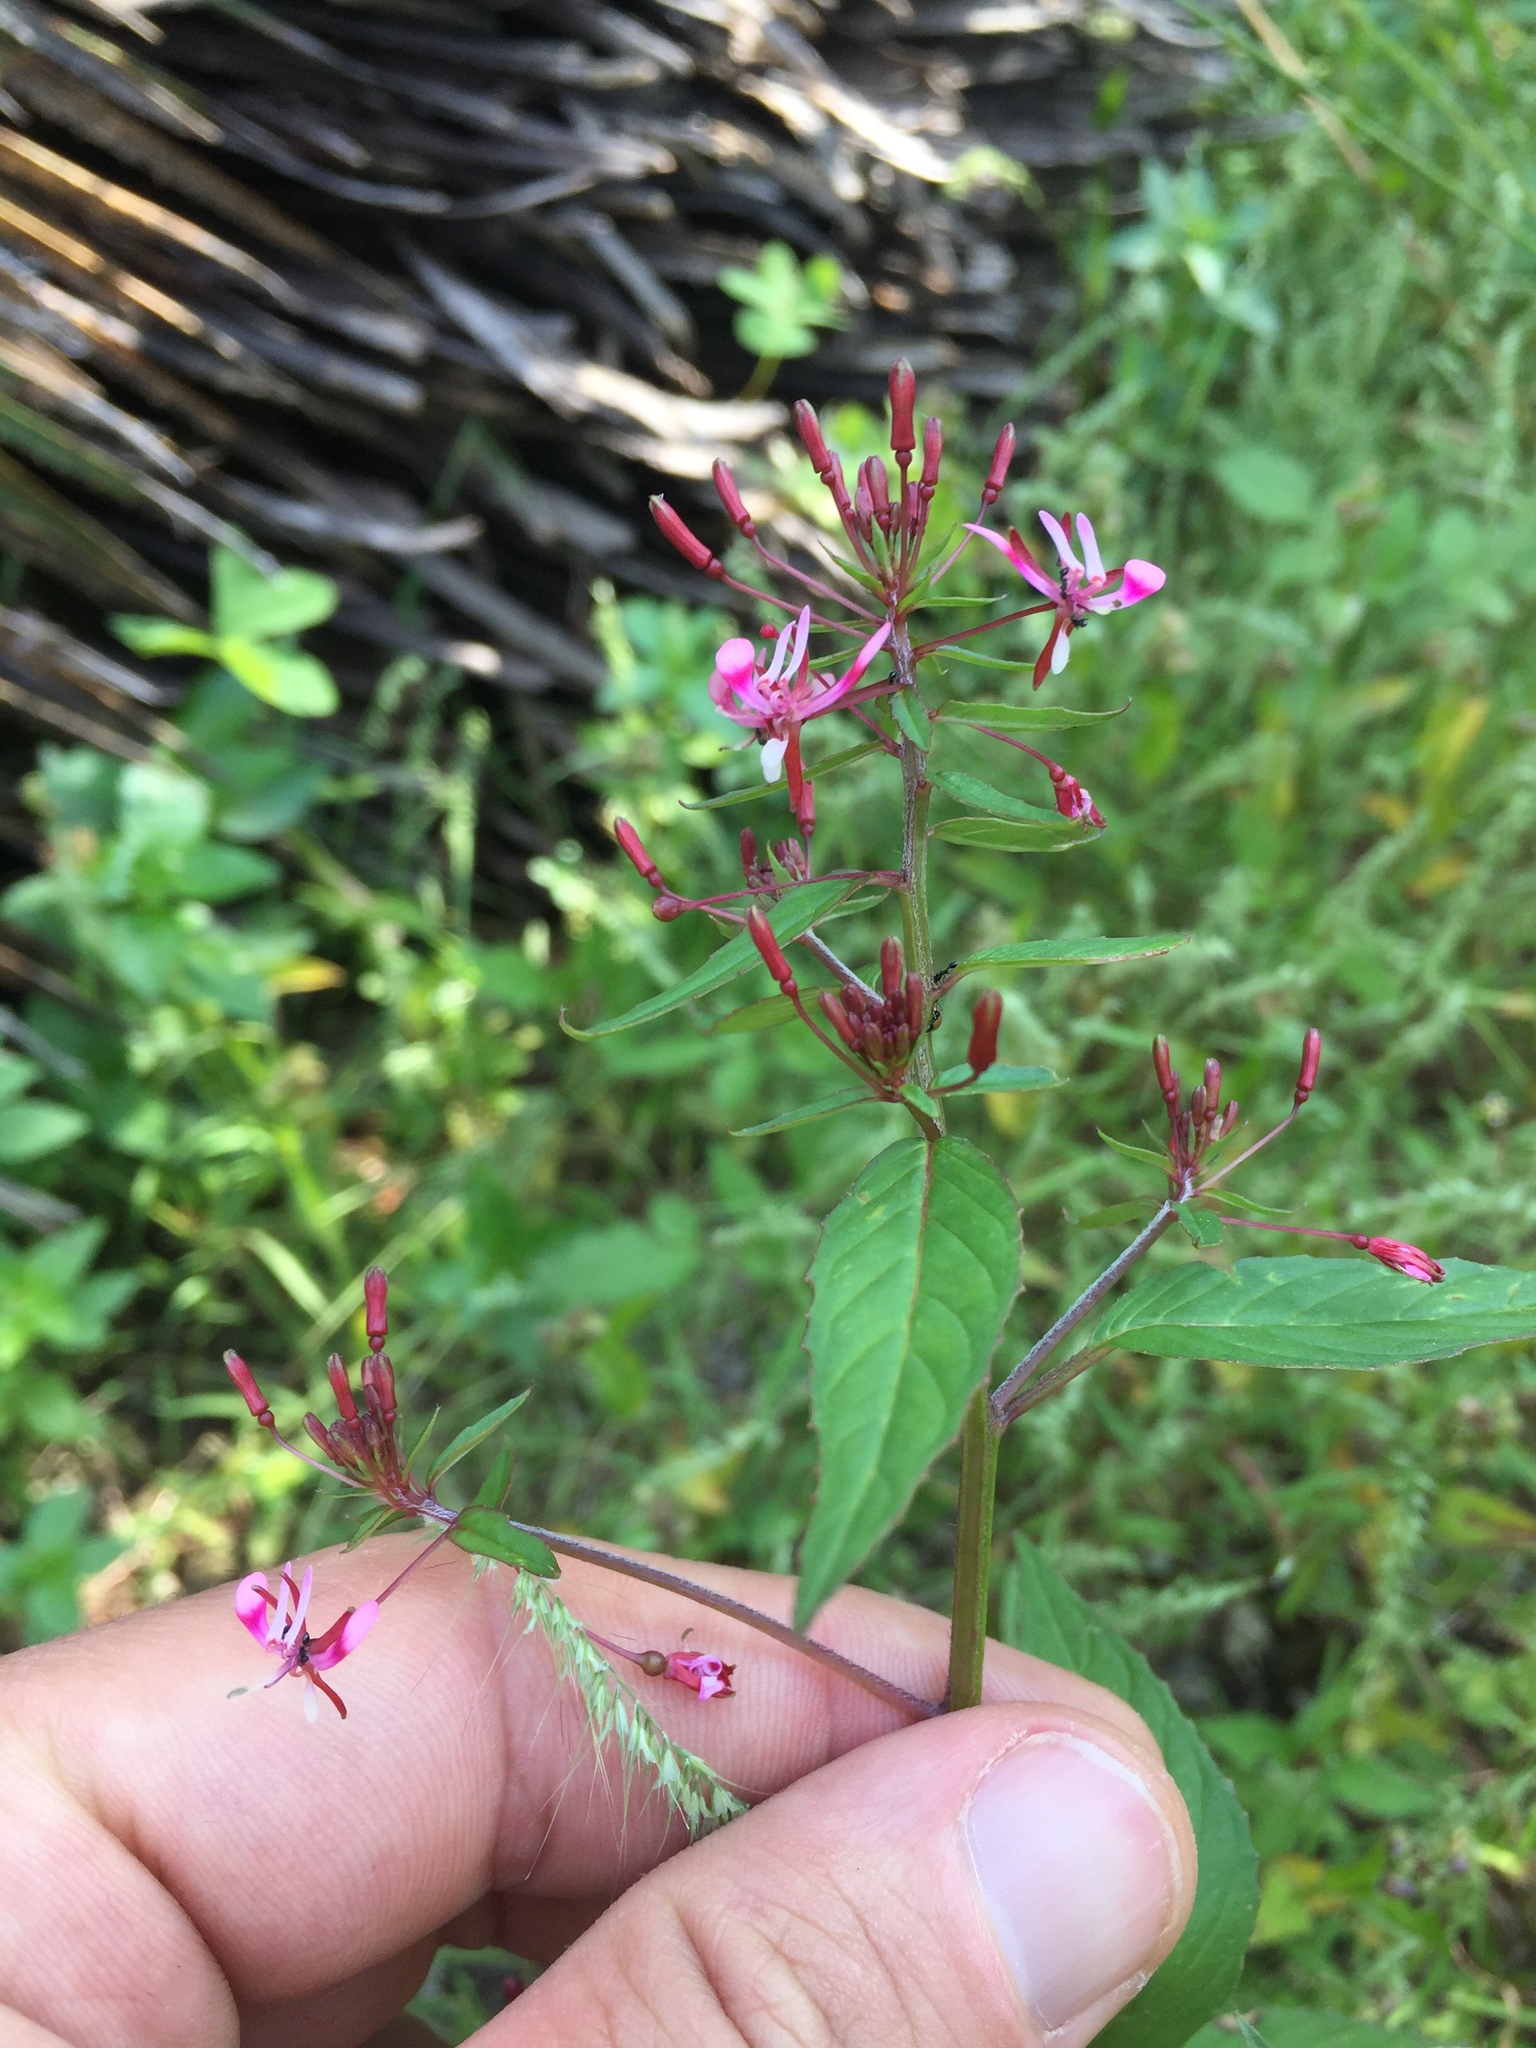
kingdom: Plantae
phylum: Tracheophyta
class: Magnoliopsida
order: Myrtales
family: Onagraceae
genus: Lopezia
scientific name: Lopezia racemosa
